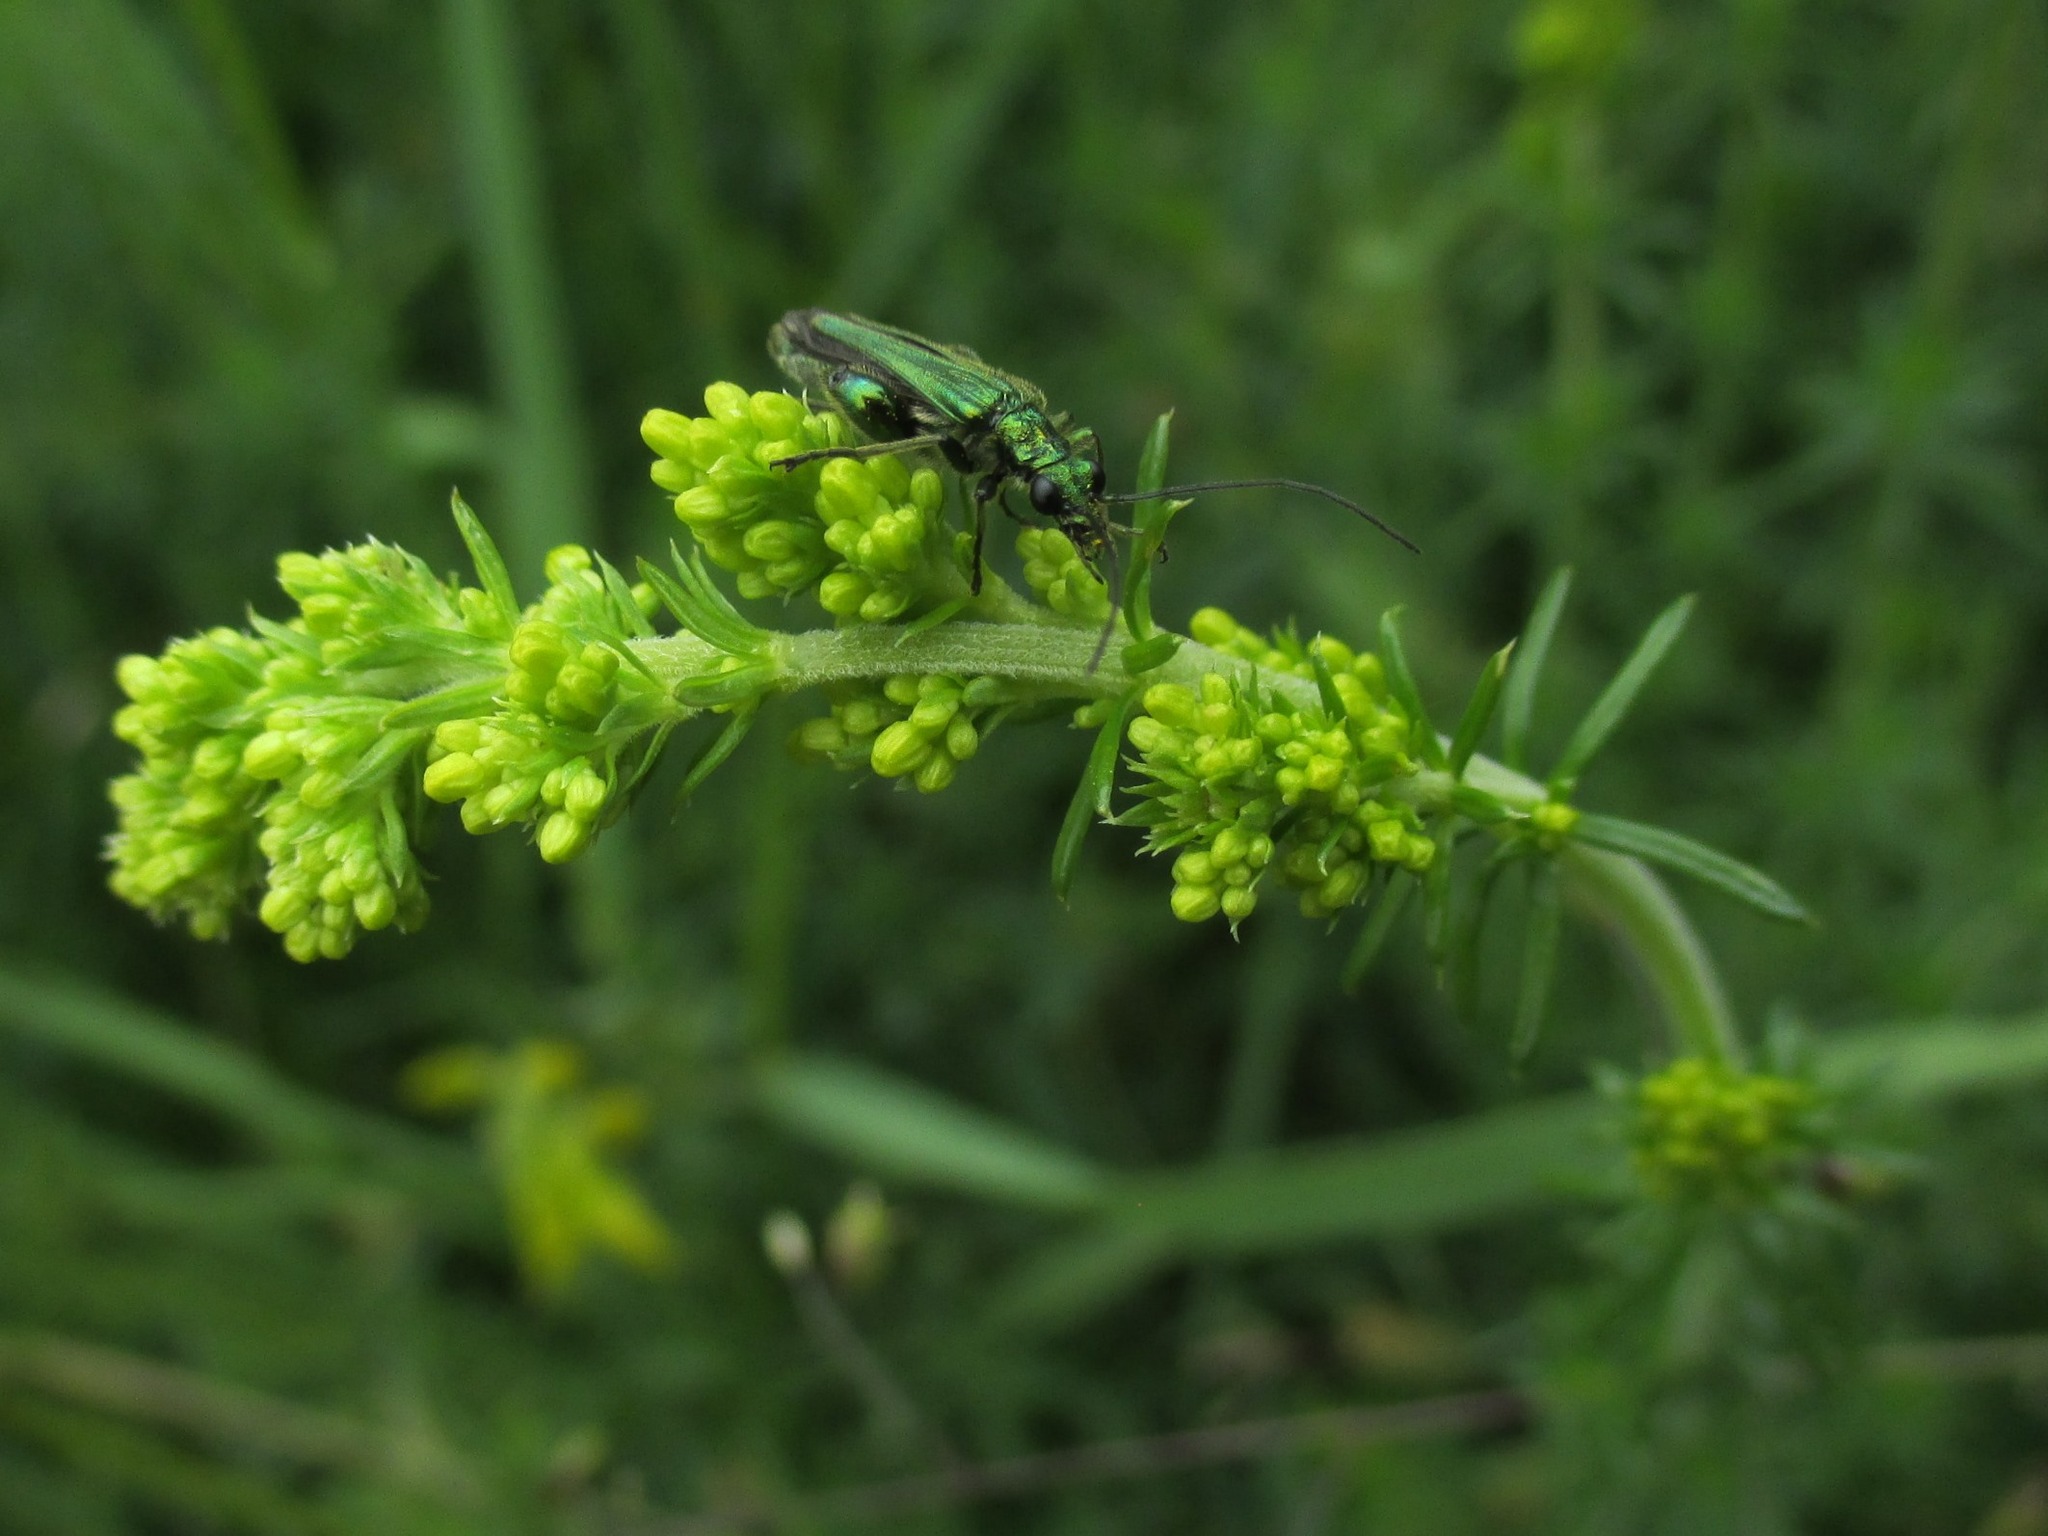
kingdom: Animalia
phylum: Arthropoda
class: Insecta
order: Coleoptera
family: Oedemeridae
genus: Oedemera
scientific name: Oedemera nobilis
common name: Swollen-thighed beetle
